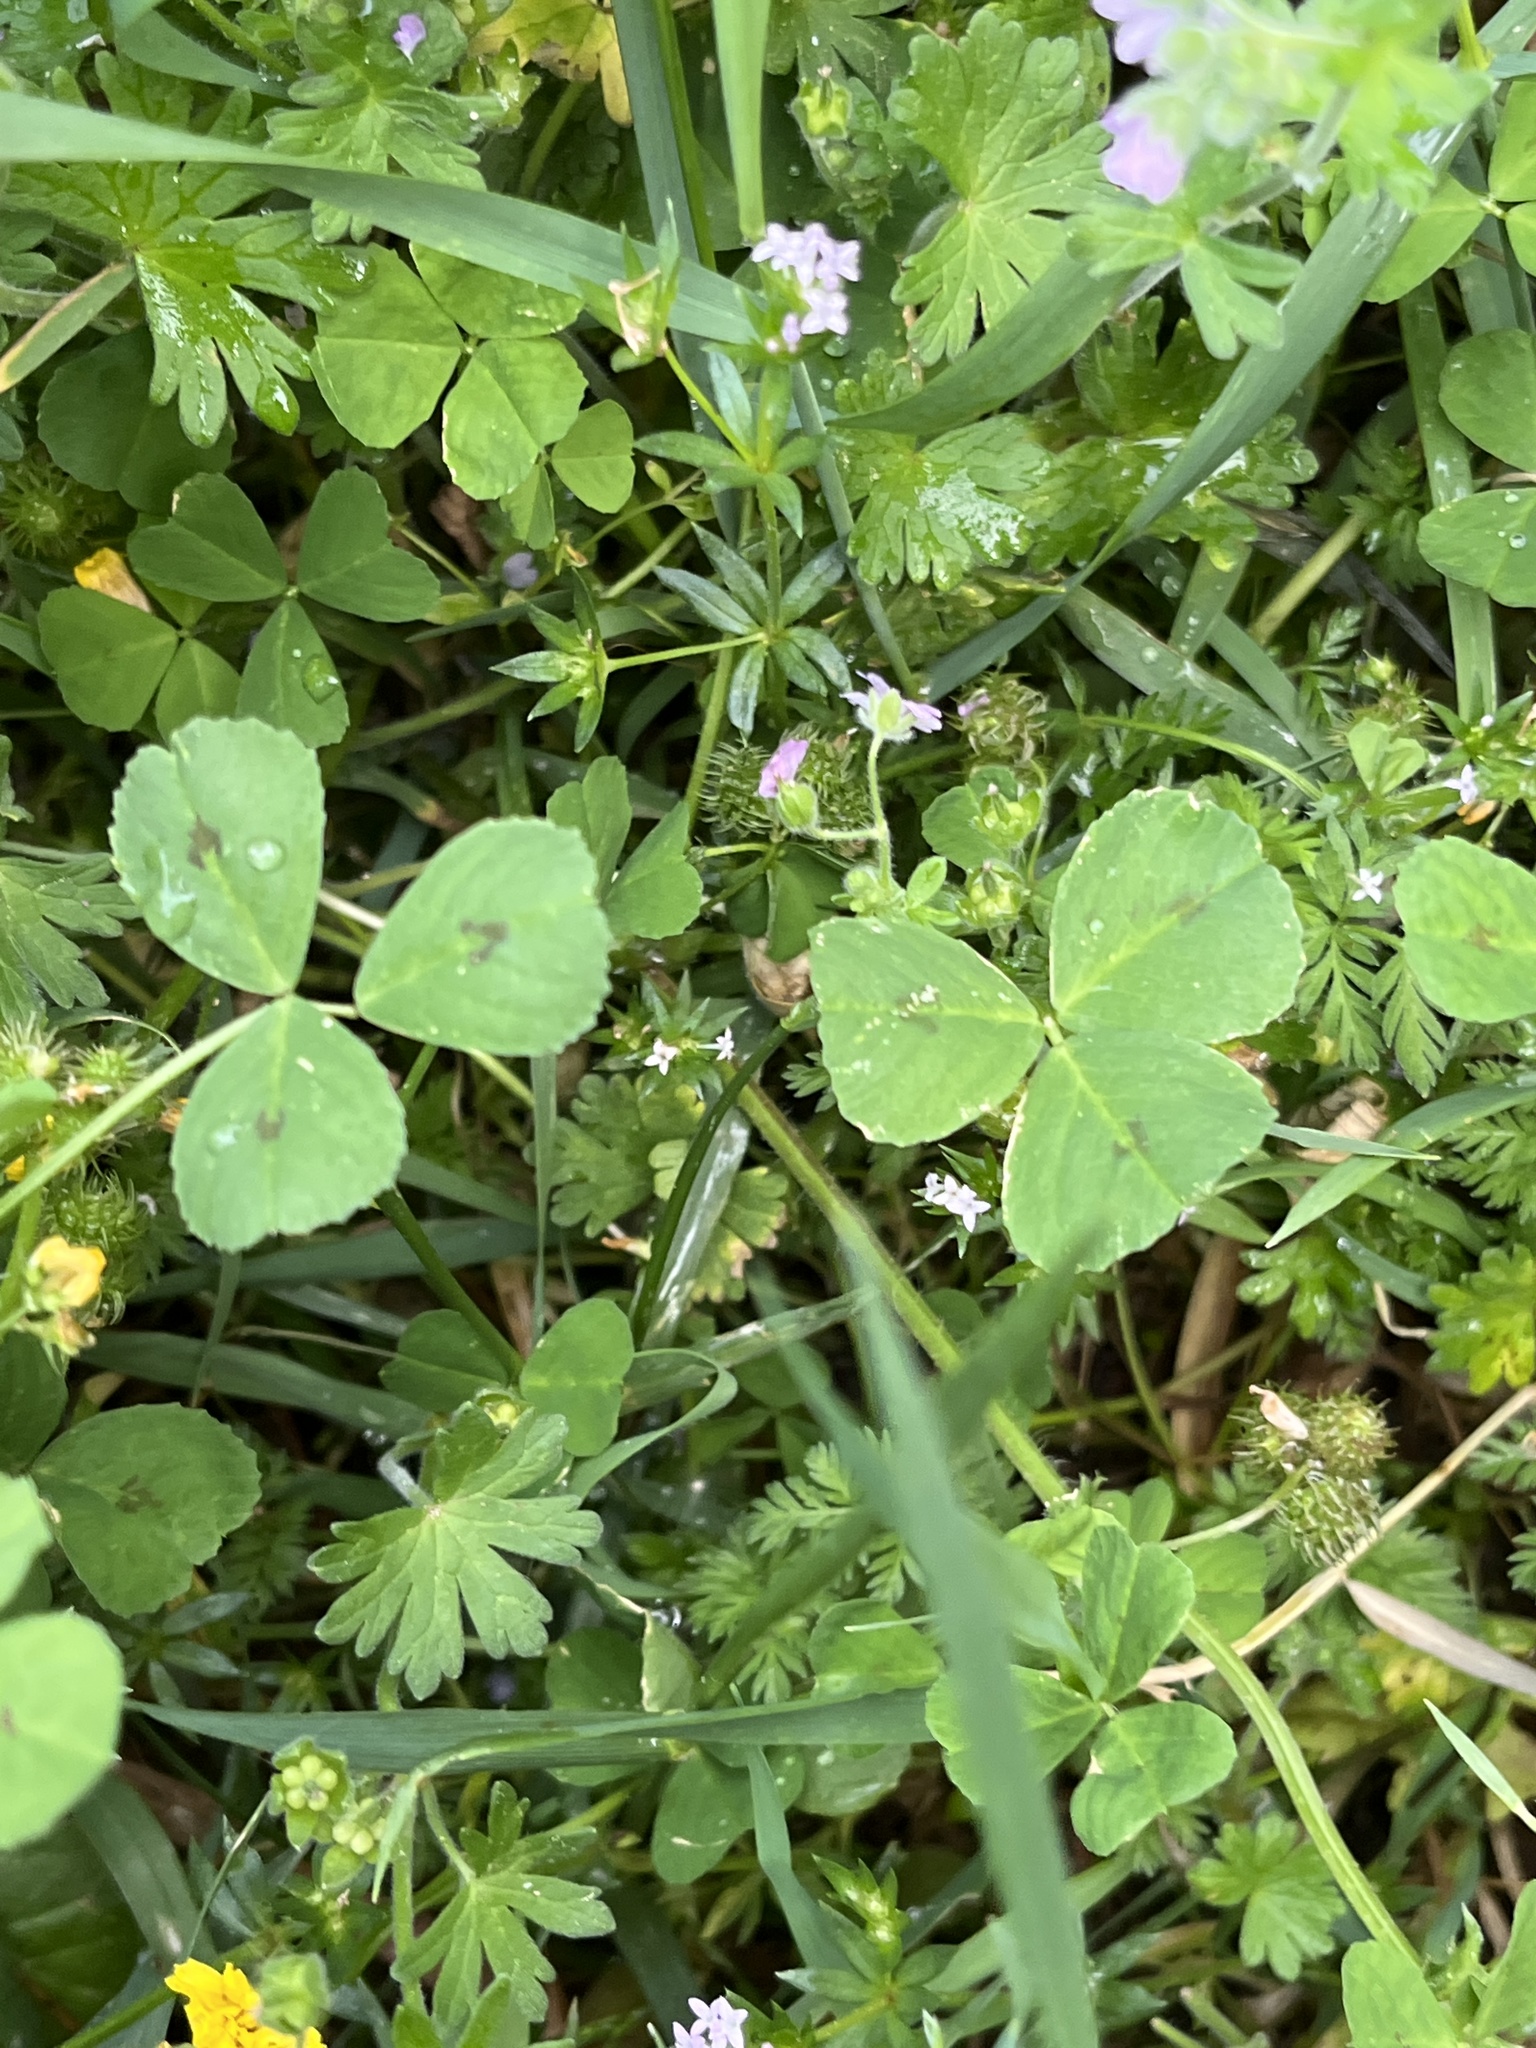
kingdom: Plantae
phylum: Tracheophyta
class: Magnoliopsida
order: Fabales
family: Fabaceae
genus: Medicago
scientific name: Medicago arabica
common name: Spotted medick
